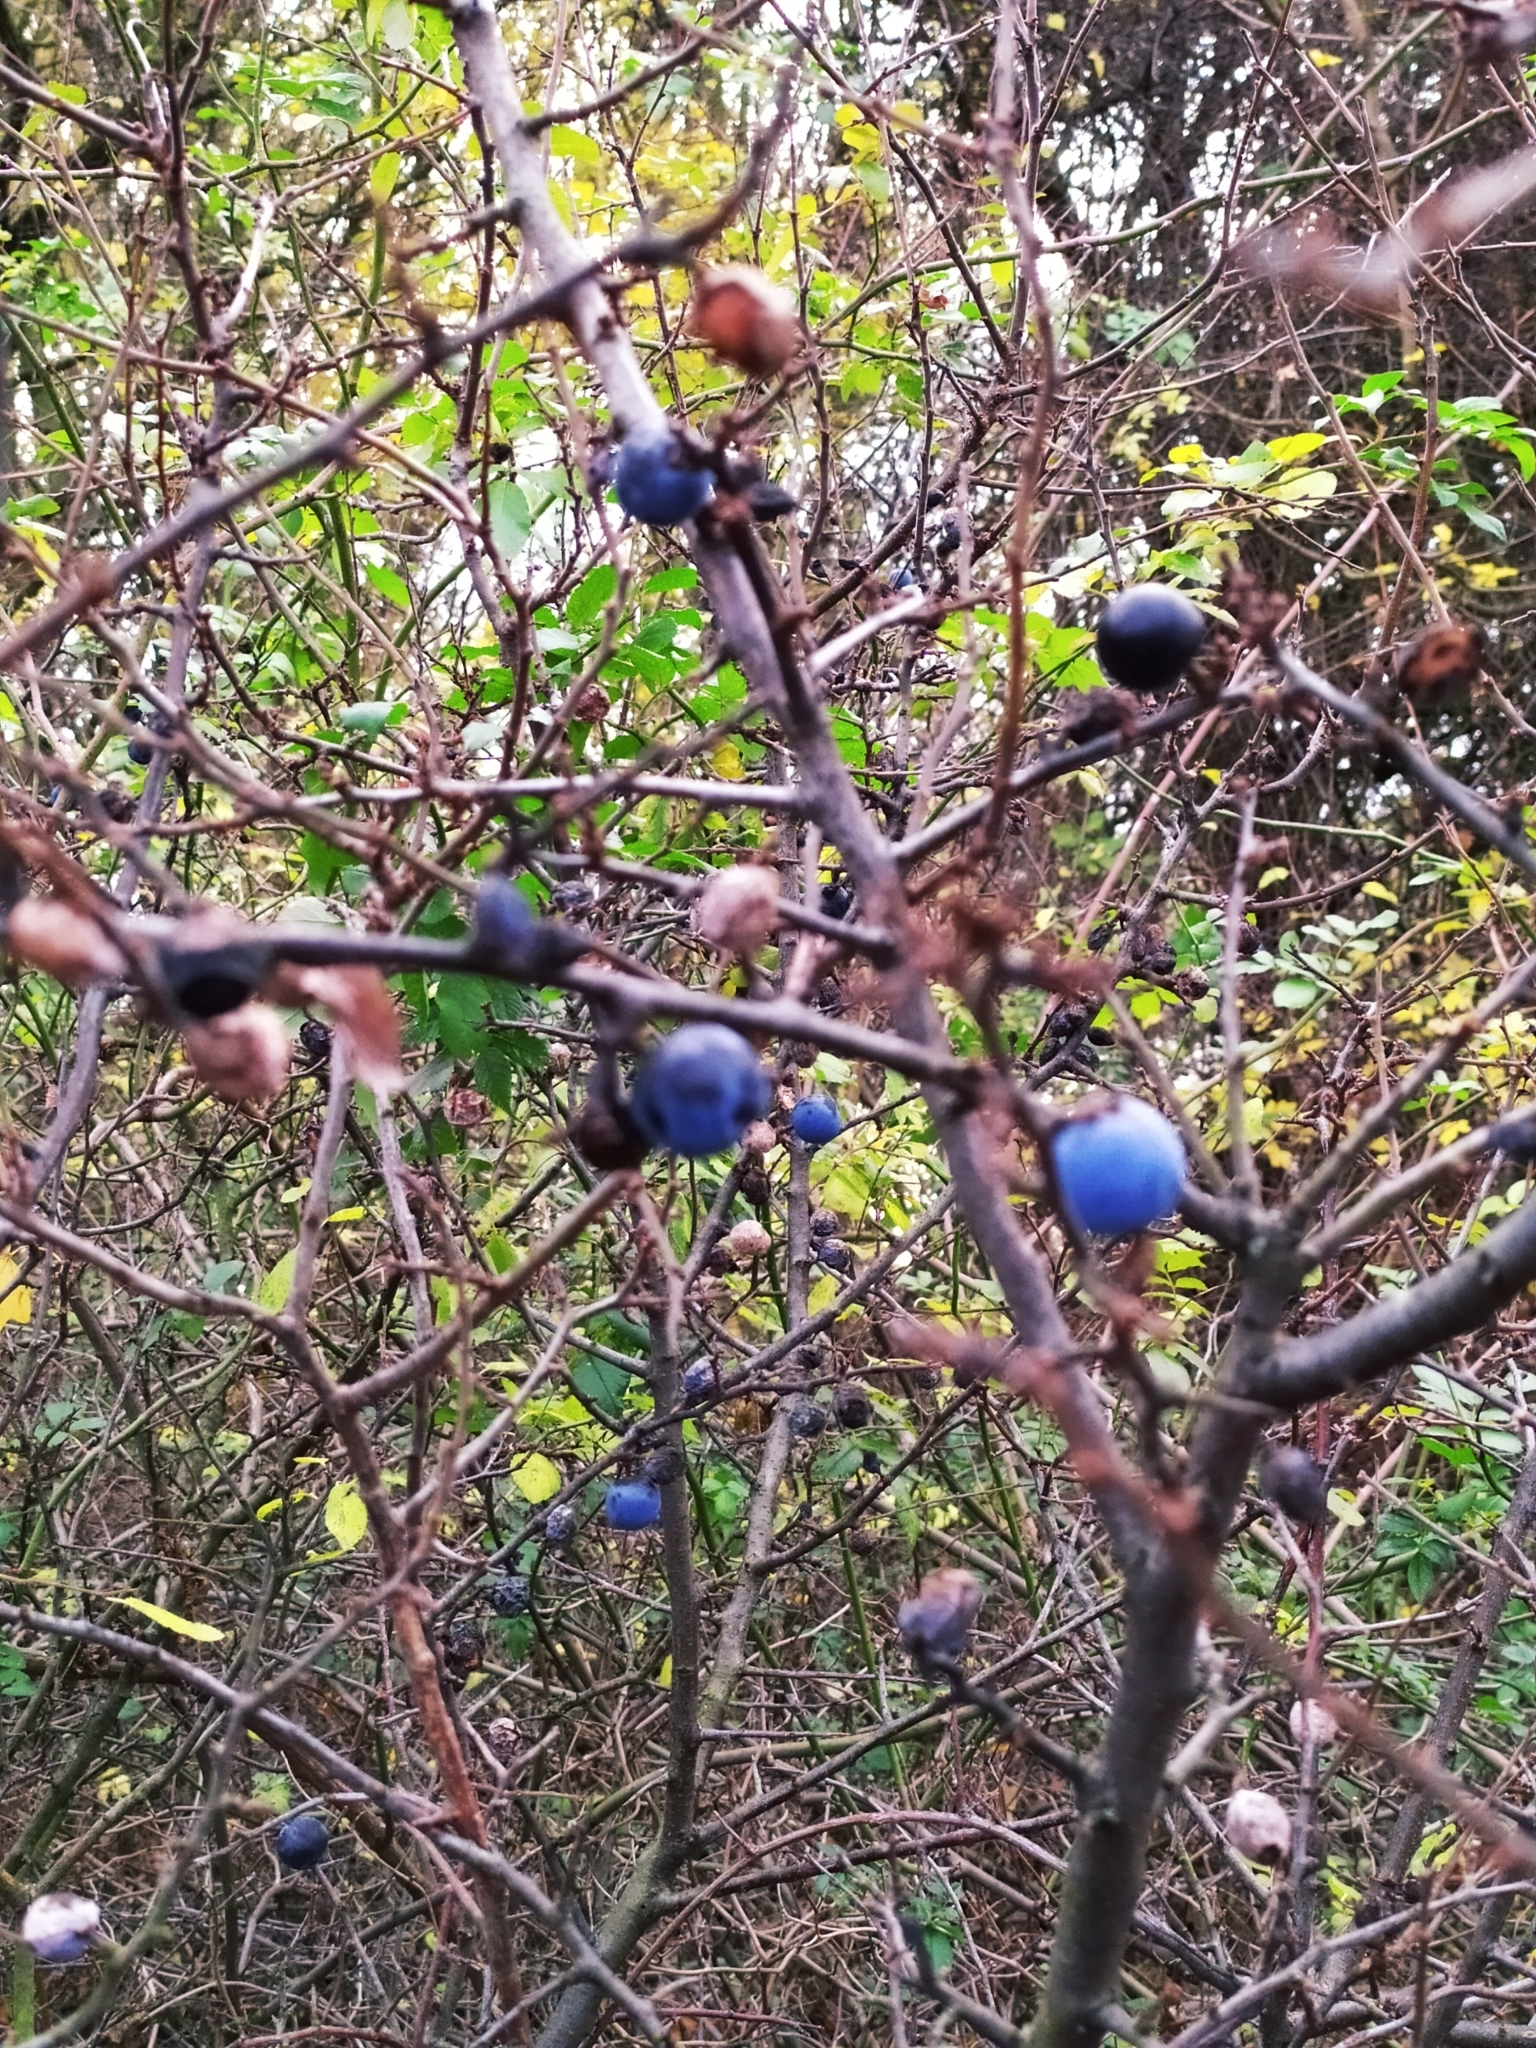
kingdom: Plantae
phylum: Tracheophyta
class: Magnoliopsida
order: Rosales
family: Rosaceae
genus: Prunus
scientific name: Prunus spinosa
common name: Blackthorn
